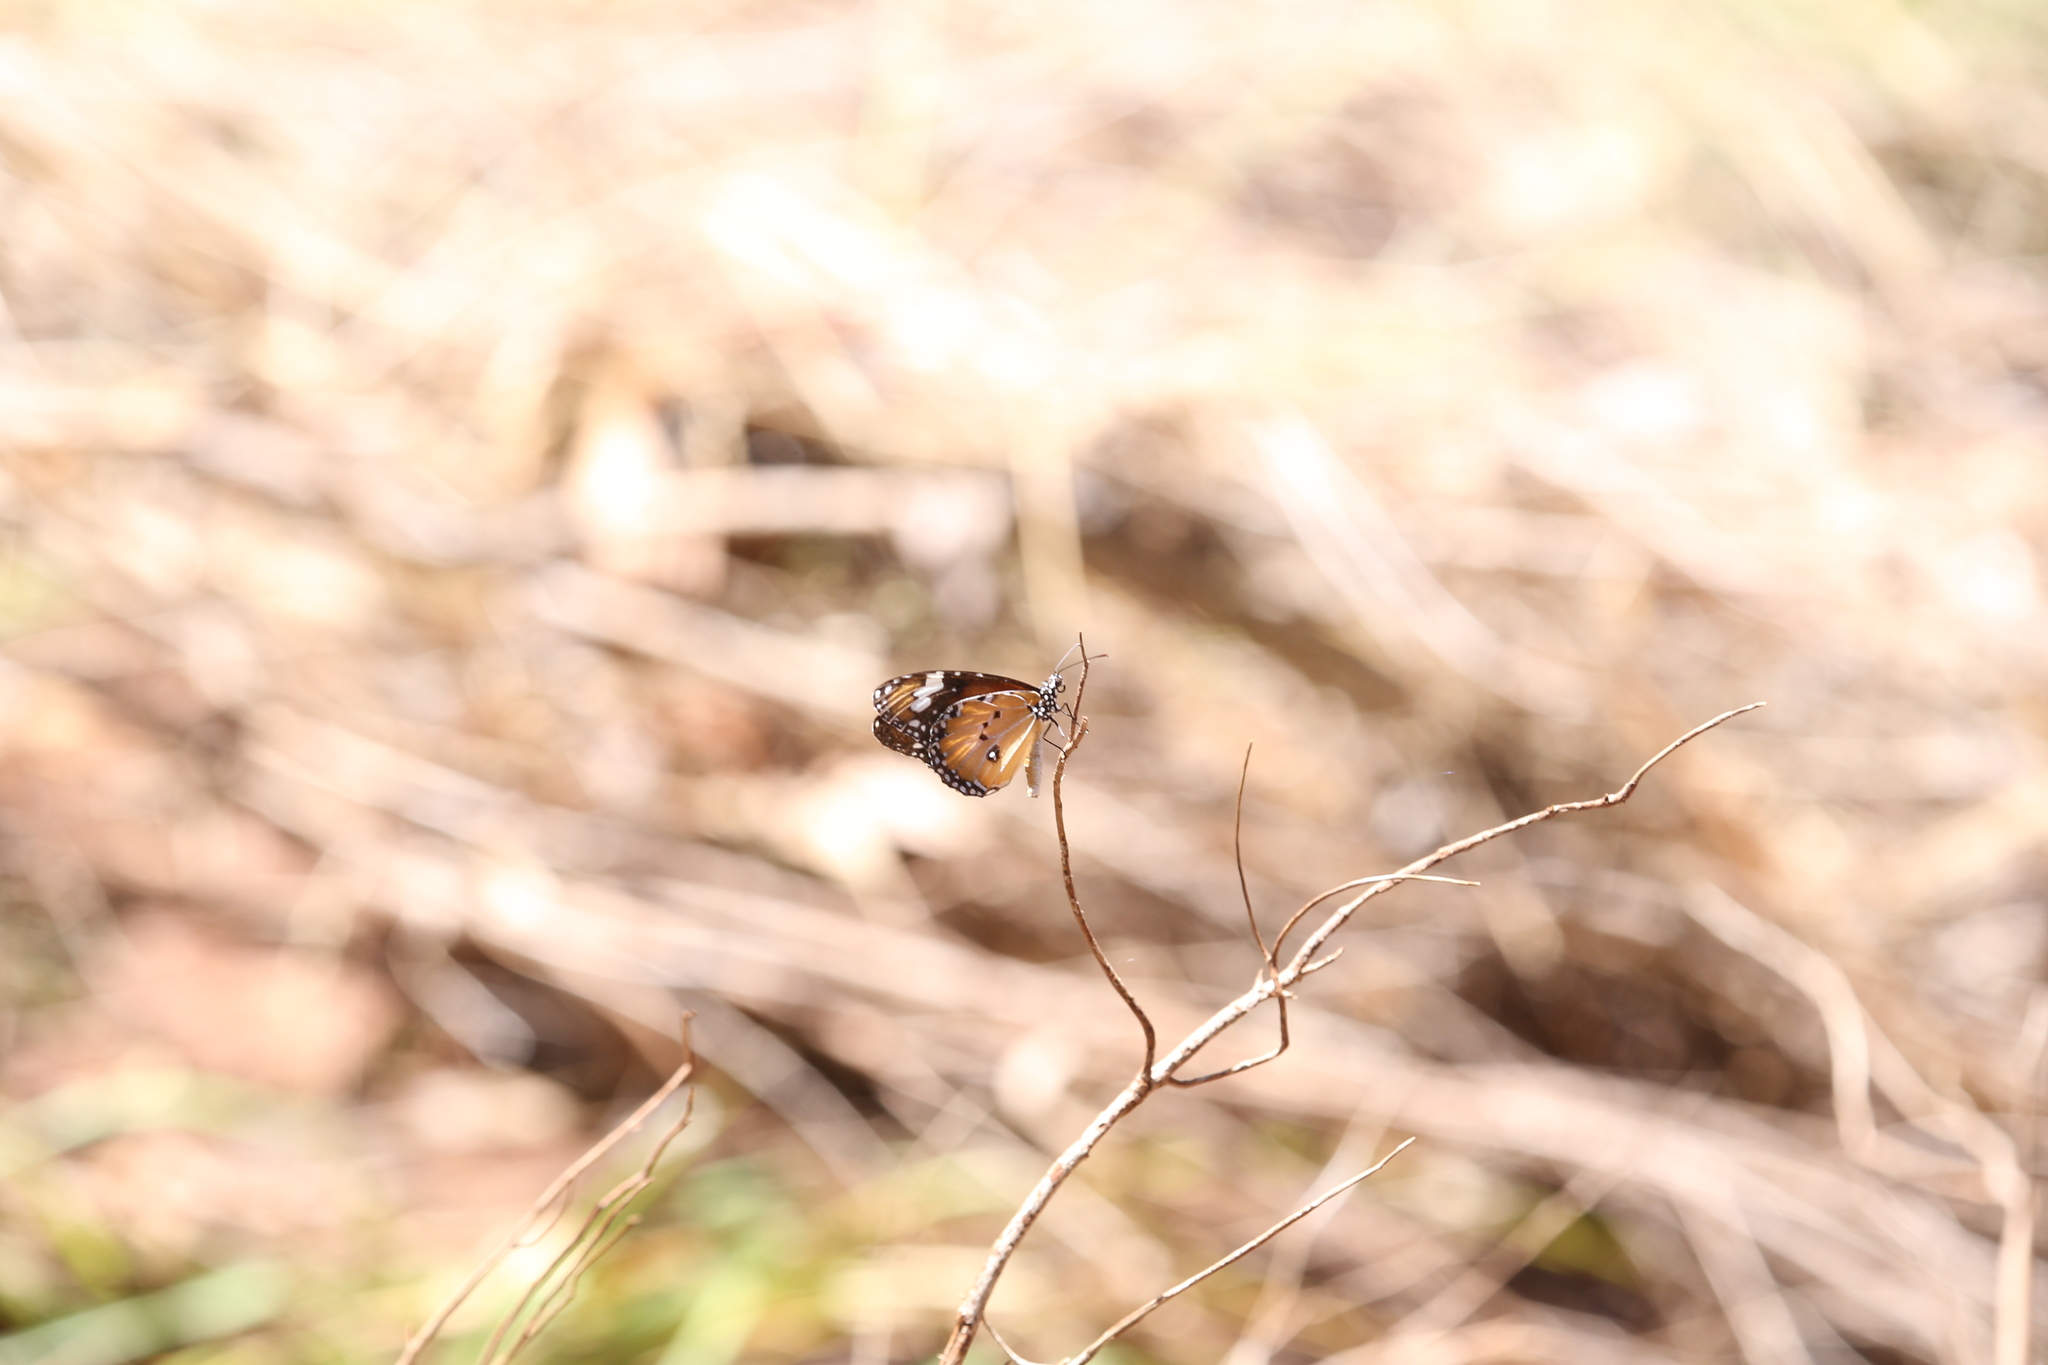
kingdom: Animalia
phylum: Arthropoda
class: Insecta
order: Lepidoptera
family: Nymphalidae
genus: Danaus
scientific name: Danaus chrysippus
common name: Plain tiger
